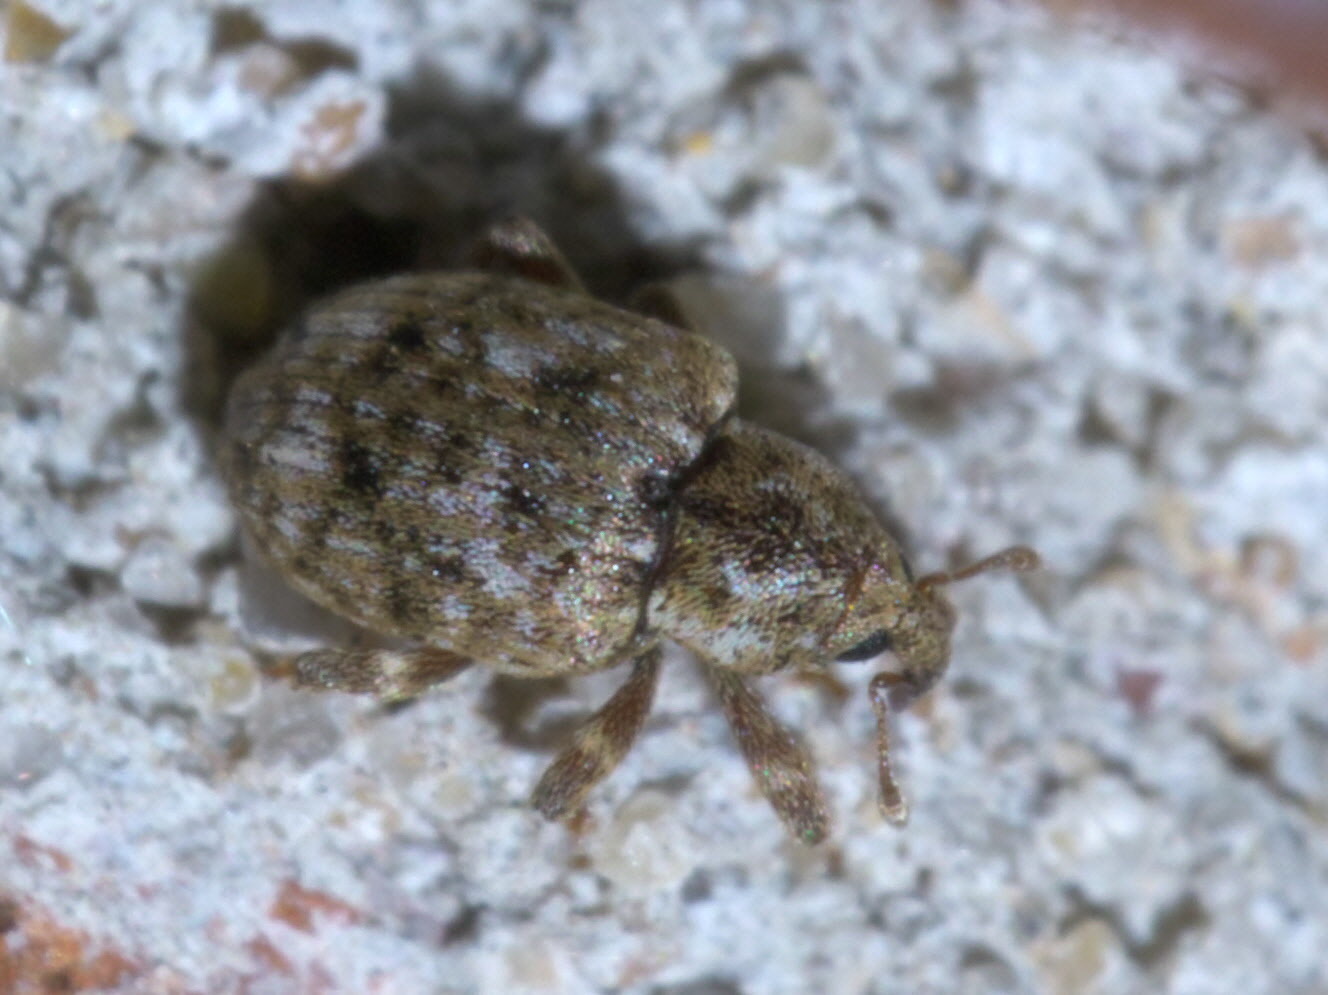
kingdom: Animalia
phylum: Arthropoda
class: Insecta
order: Coleoptera
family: Curculionidae
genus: Conotrachelus
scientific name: Conotrachelus recessus
